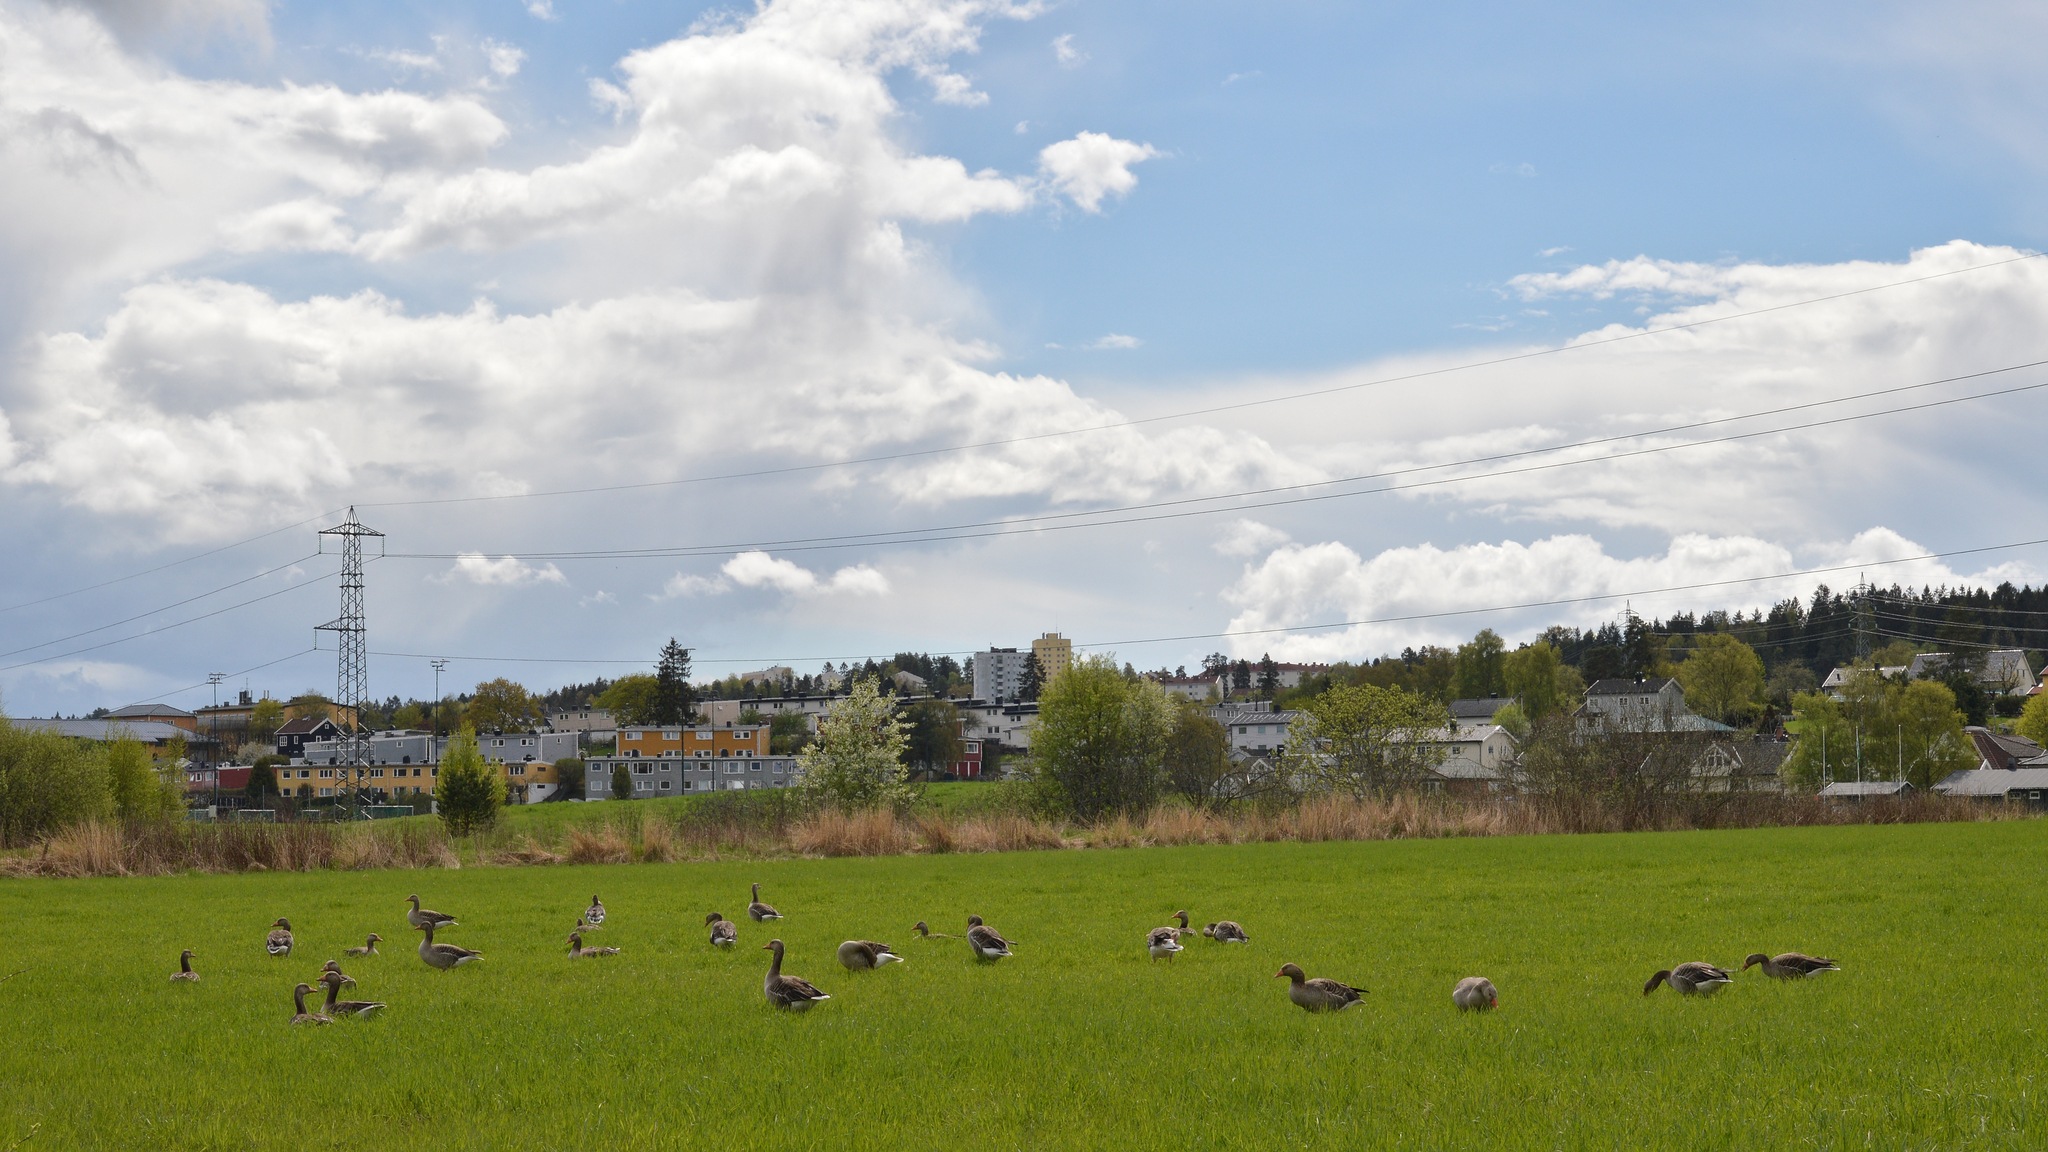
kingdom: Animalia
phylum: Chordata
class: Aves
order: Anseriformes
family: Anatidae
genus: Anser
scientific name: Anser anser
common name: Greylag goose
